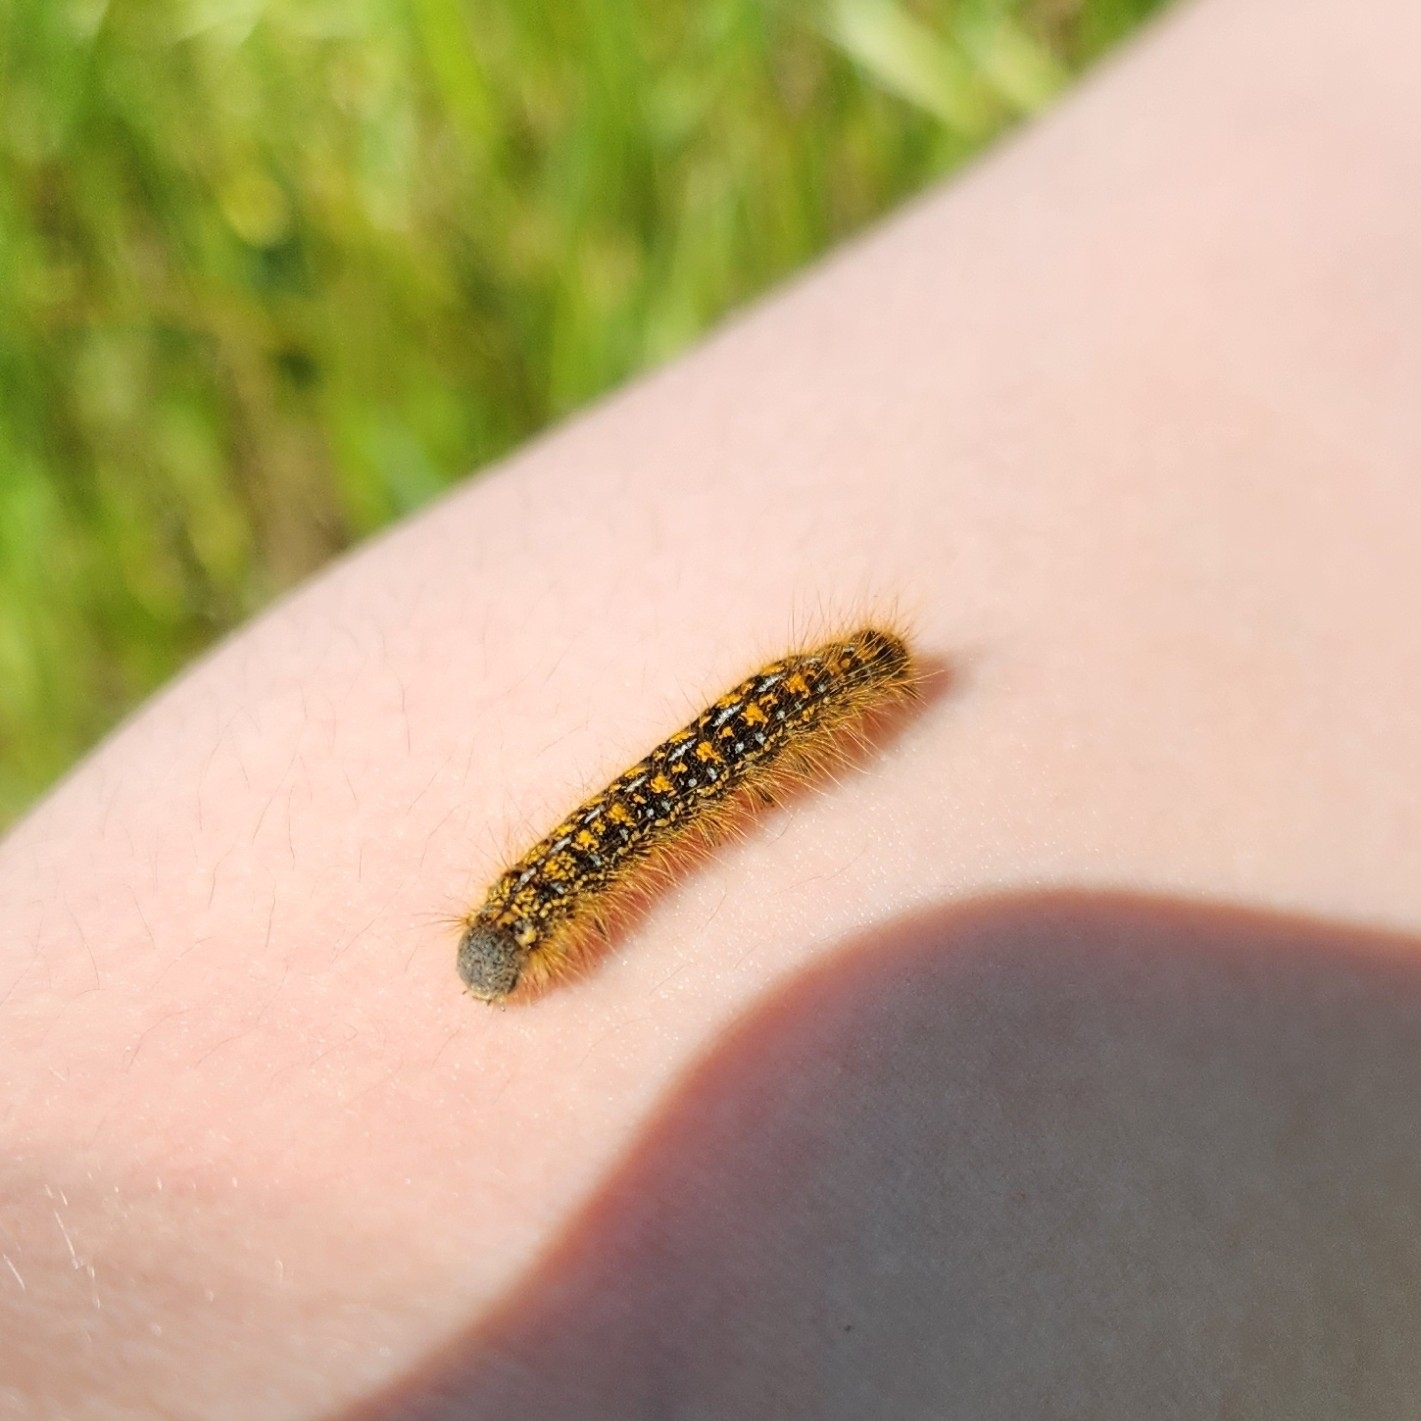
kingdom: Animalia
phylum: Arthropoda
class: Insecta
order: Lepidoptera
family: Lasiocampidae
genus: Malacosoma
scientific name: Malacosoma californica
